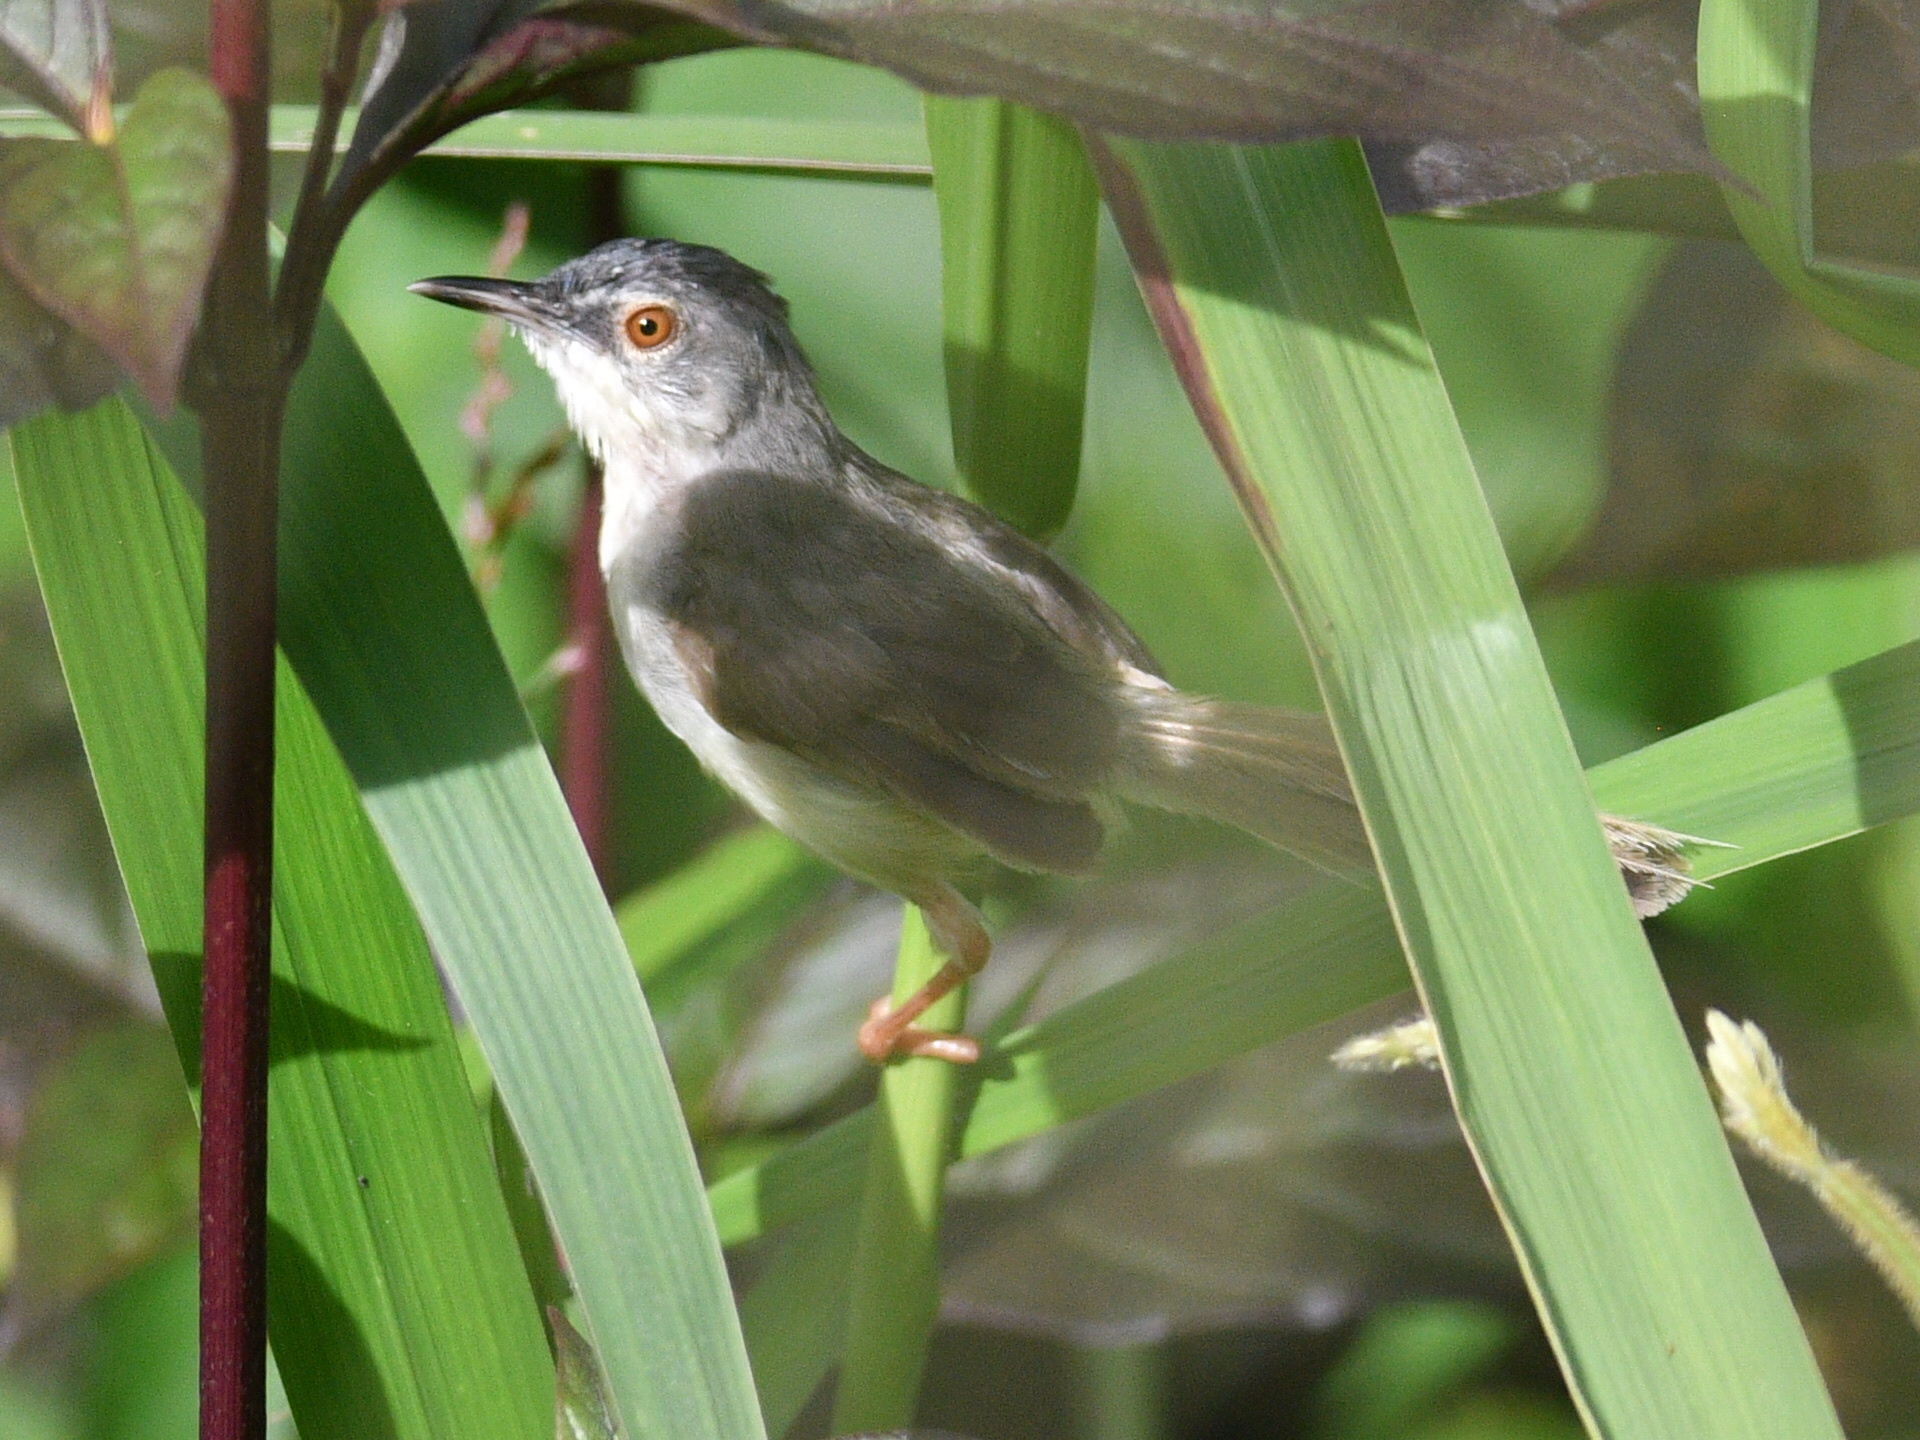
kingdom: Animalia
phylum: Chordata
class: Aves
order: Passeriformes
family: Cisticolidae
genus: Prinia
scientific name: Prinia flaviventris
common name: Yellow-bellied prinia
